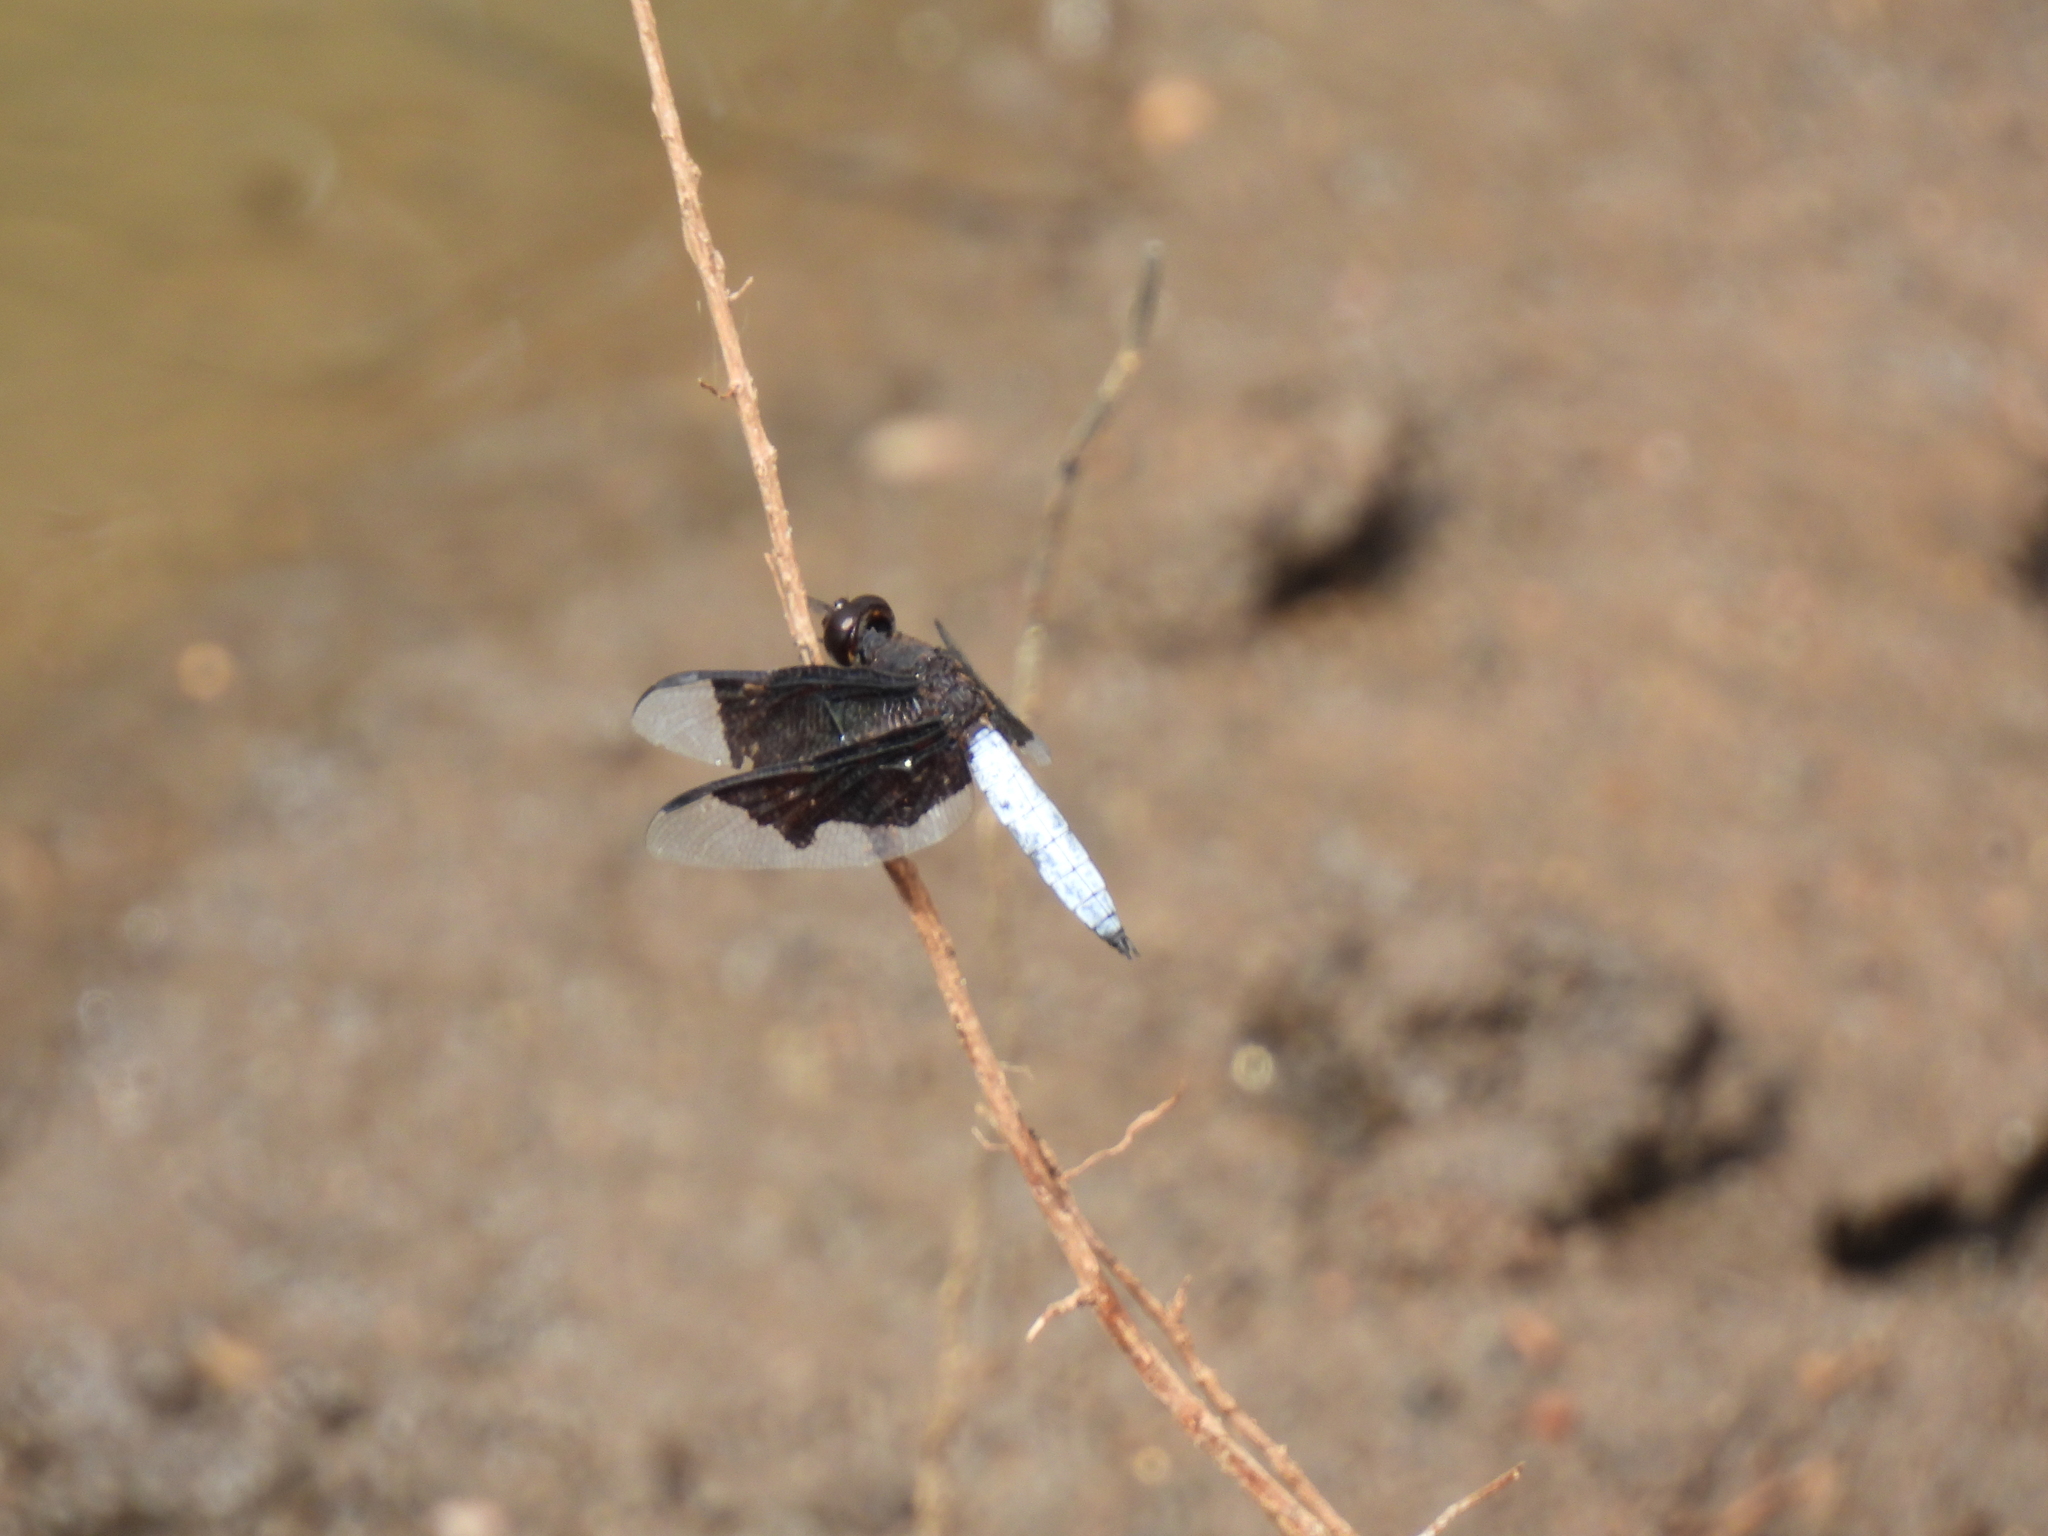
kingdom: Animalia
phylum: Arthropoda
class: Insecta
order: Odonata
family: Libellulidae
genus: Palpopleura
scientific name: Palpopleura lucia
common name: Lucia widow
